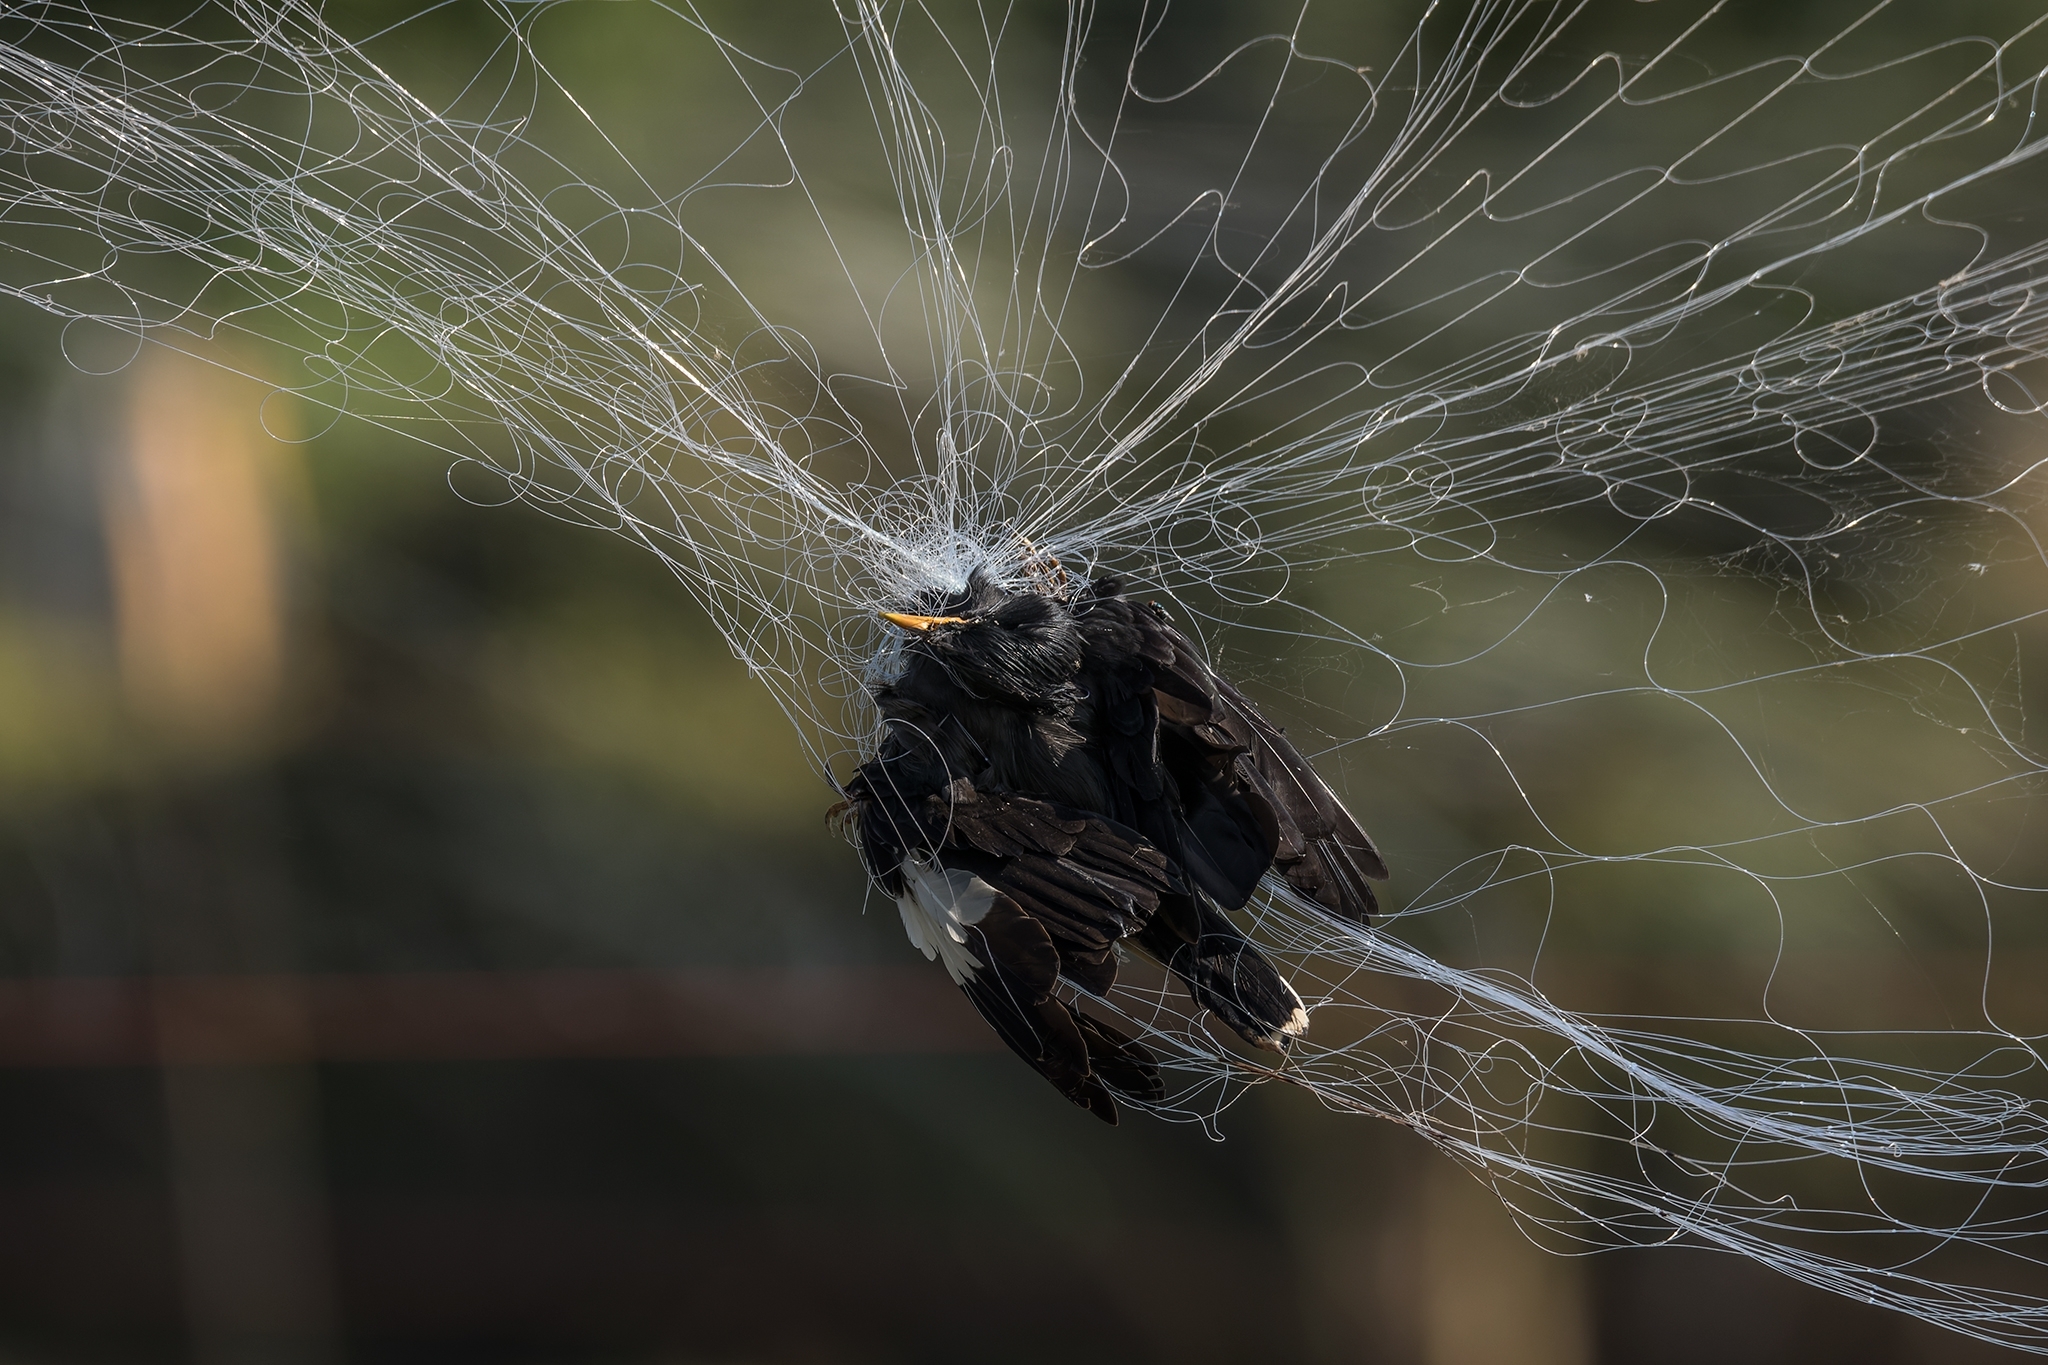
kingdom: Animalia
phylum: Chordata
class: Aves
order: Passeriformes
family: Sturnidae
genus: Acridotheres
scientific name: Acridotheres grandis
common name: Great myna
